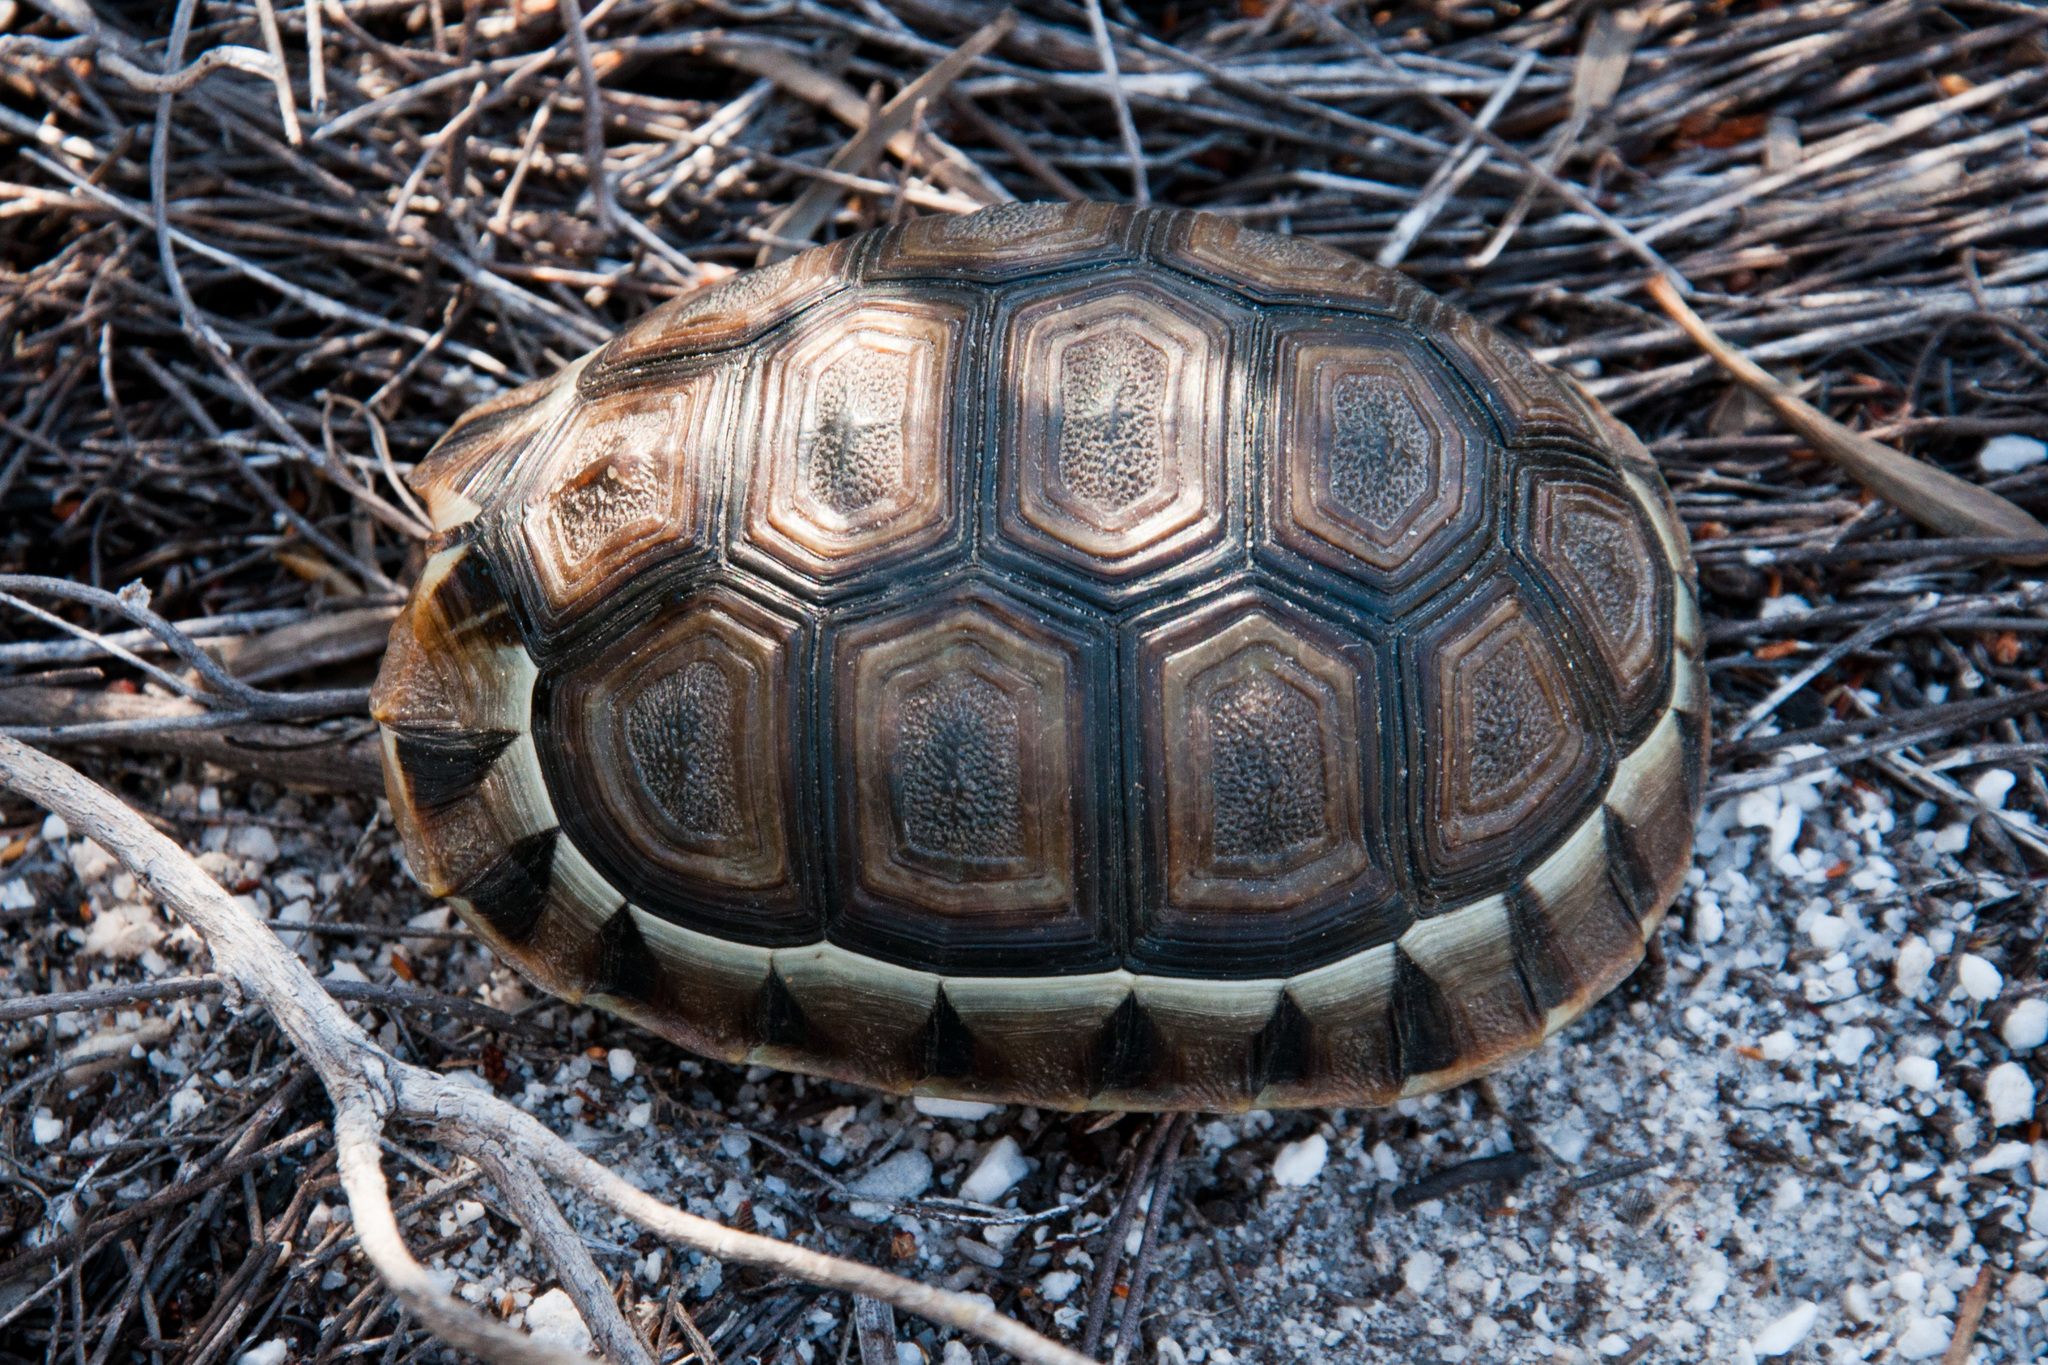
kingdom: Animalia
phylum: Chordata
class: Testudines
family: Testudinidae
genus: Chersina
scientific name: Chersina angulata
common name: South african bowsprit tortoise
